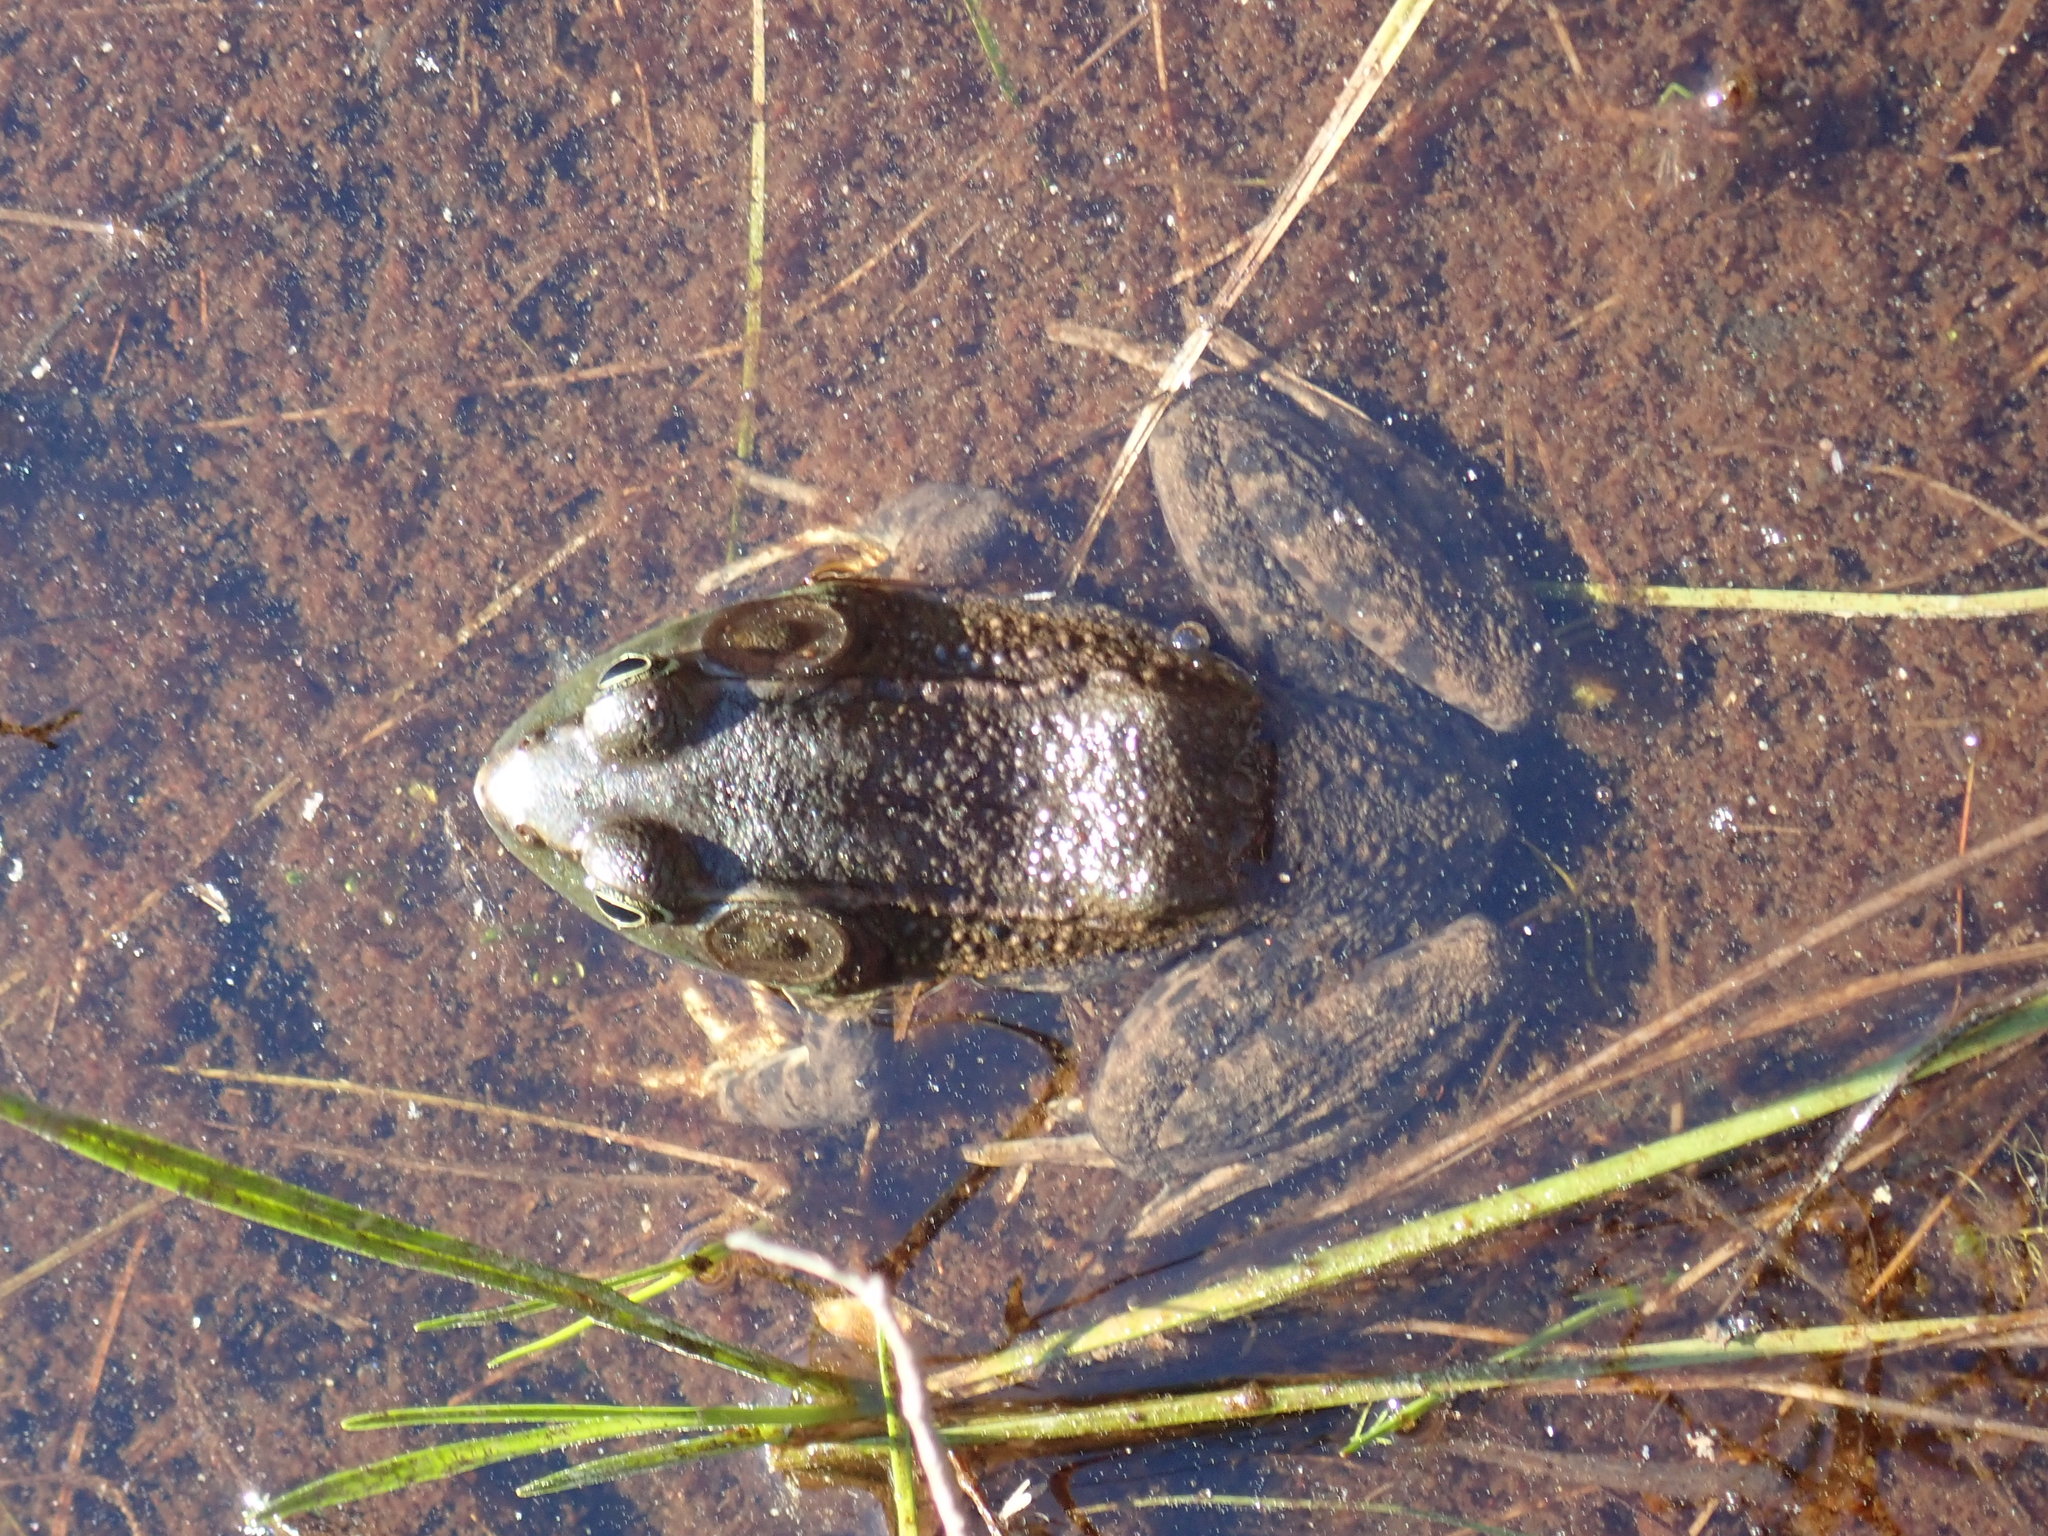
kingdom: Animalia
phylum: Chordata
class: Amphibia
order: Anura
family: Ranidae
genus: Lithobates
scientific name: Lithobates clamitans
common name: Green frog
